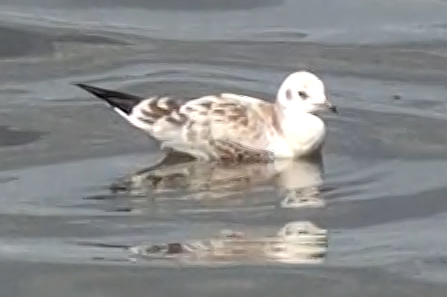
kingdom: Animalia
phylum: Chordata
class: Aves
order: Charadriiformes
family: Laridae
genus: Chroicocephalus
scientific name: Chroicocephalus ridibundus
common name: Black-headed gull
